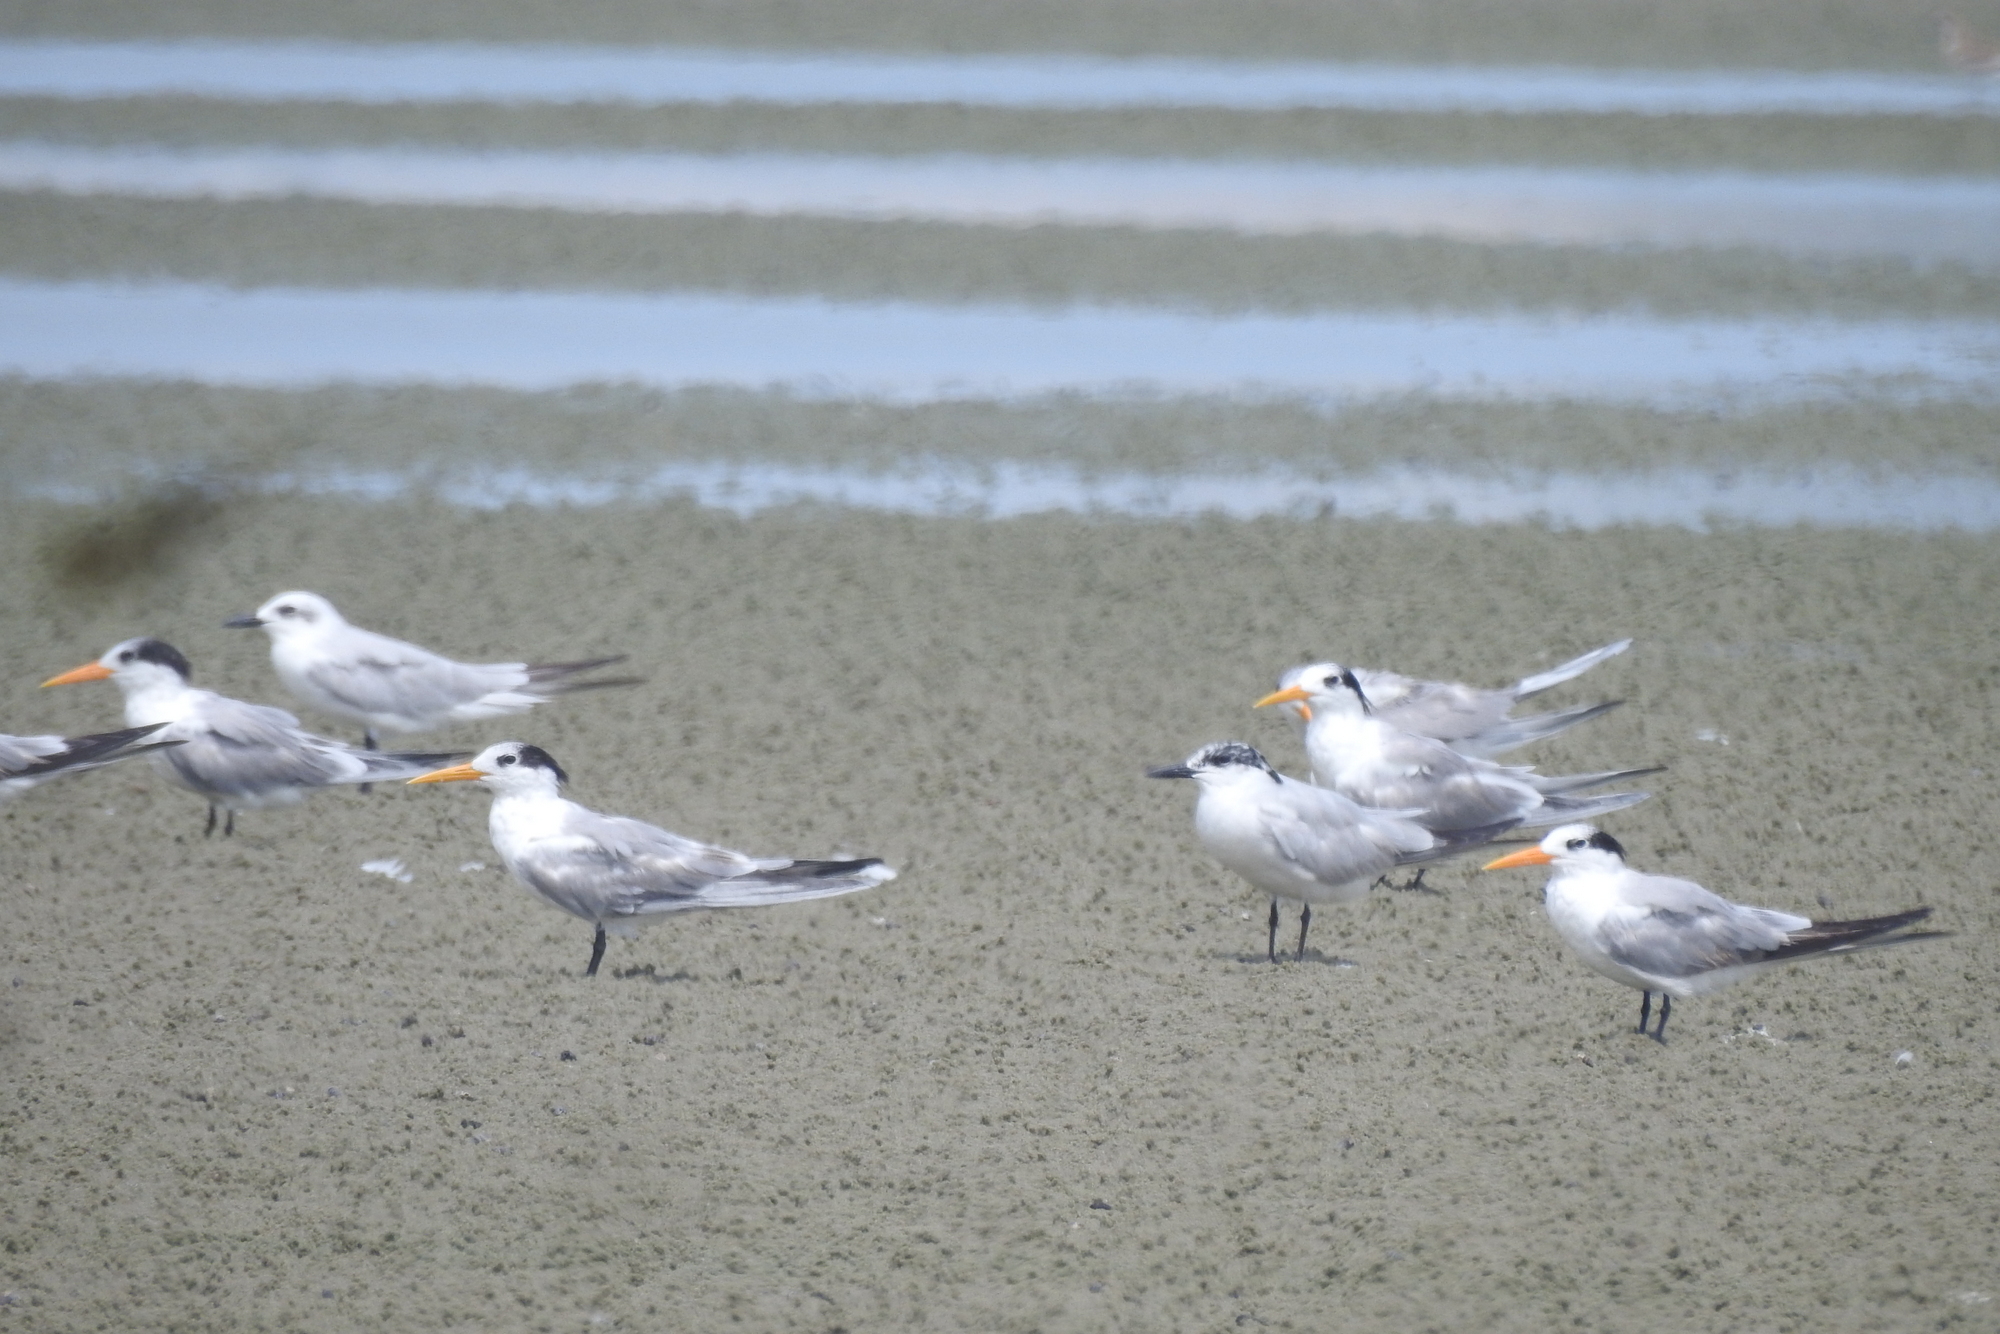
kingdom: Animalia
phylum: Chordata
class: Aves
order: Charadriiformes
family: Laridae
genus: Thalasseus
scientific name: Thalasseus bengalensis
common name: Lesser crested tern
